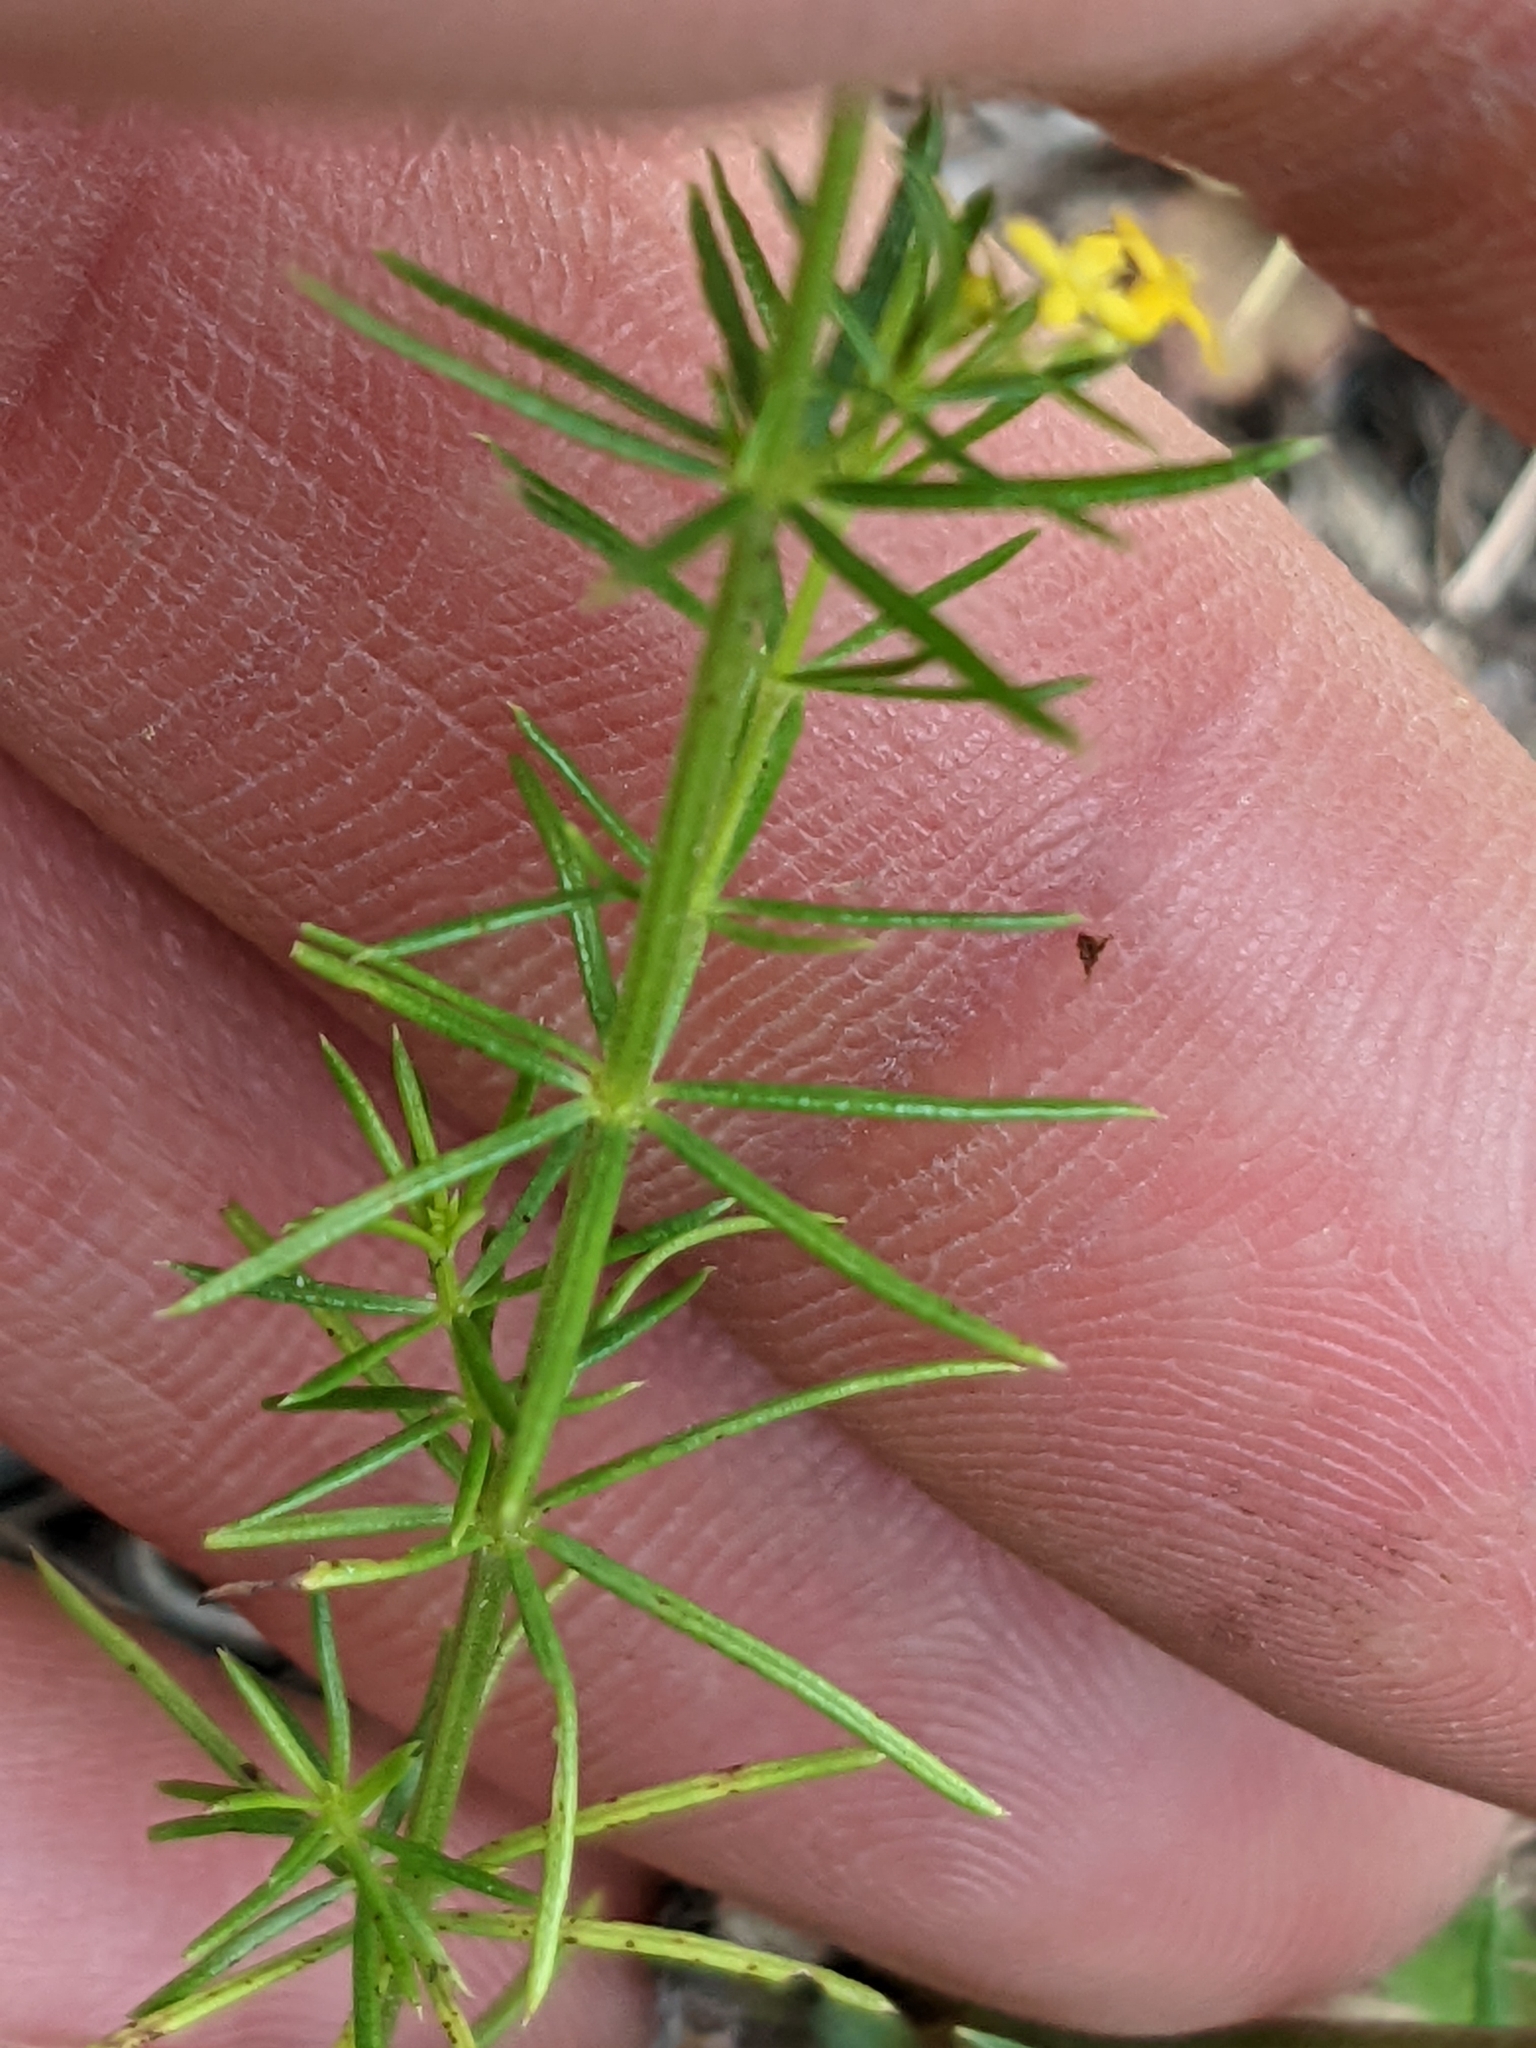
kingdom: Plantae
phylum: Tracheophyta
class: Magnoliopsida
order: Gentianales
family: Rubiaceae
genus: Galium
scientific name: Galium verum
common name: Lady's bedstraw
